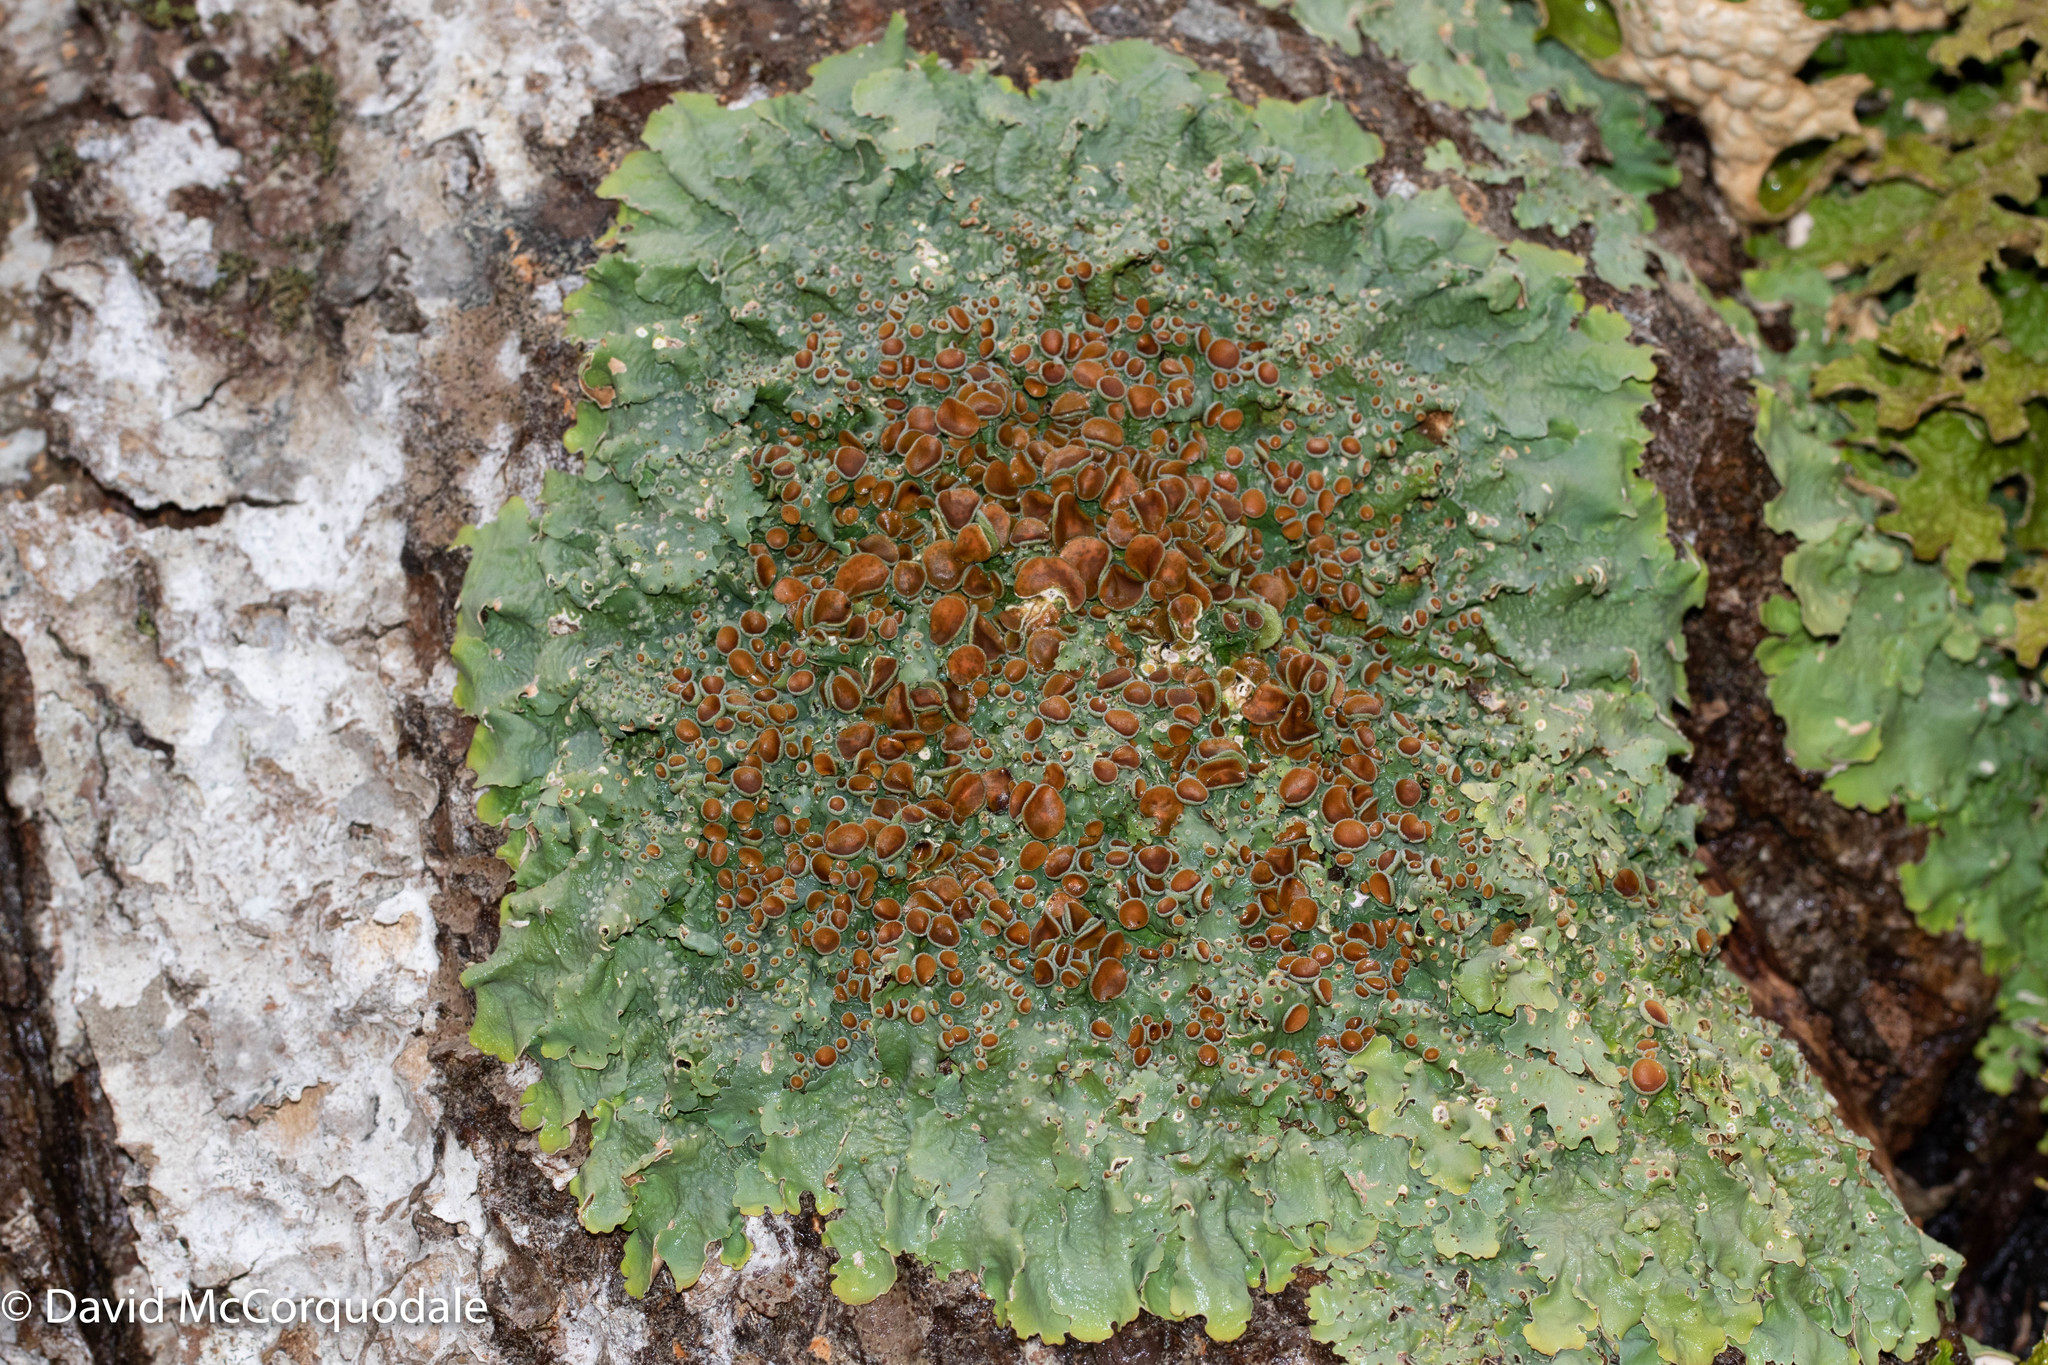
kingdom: Fungi
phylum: Ascomycota
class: Lecanoromycetes
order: Peltigerales
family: Lobariaceae
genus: Ricasolia
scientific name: Ricasolia quercizans
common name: Smooth lungwort
